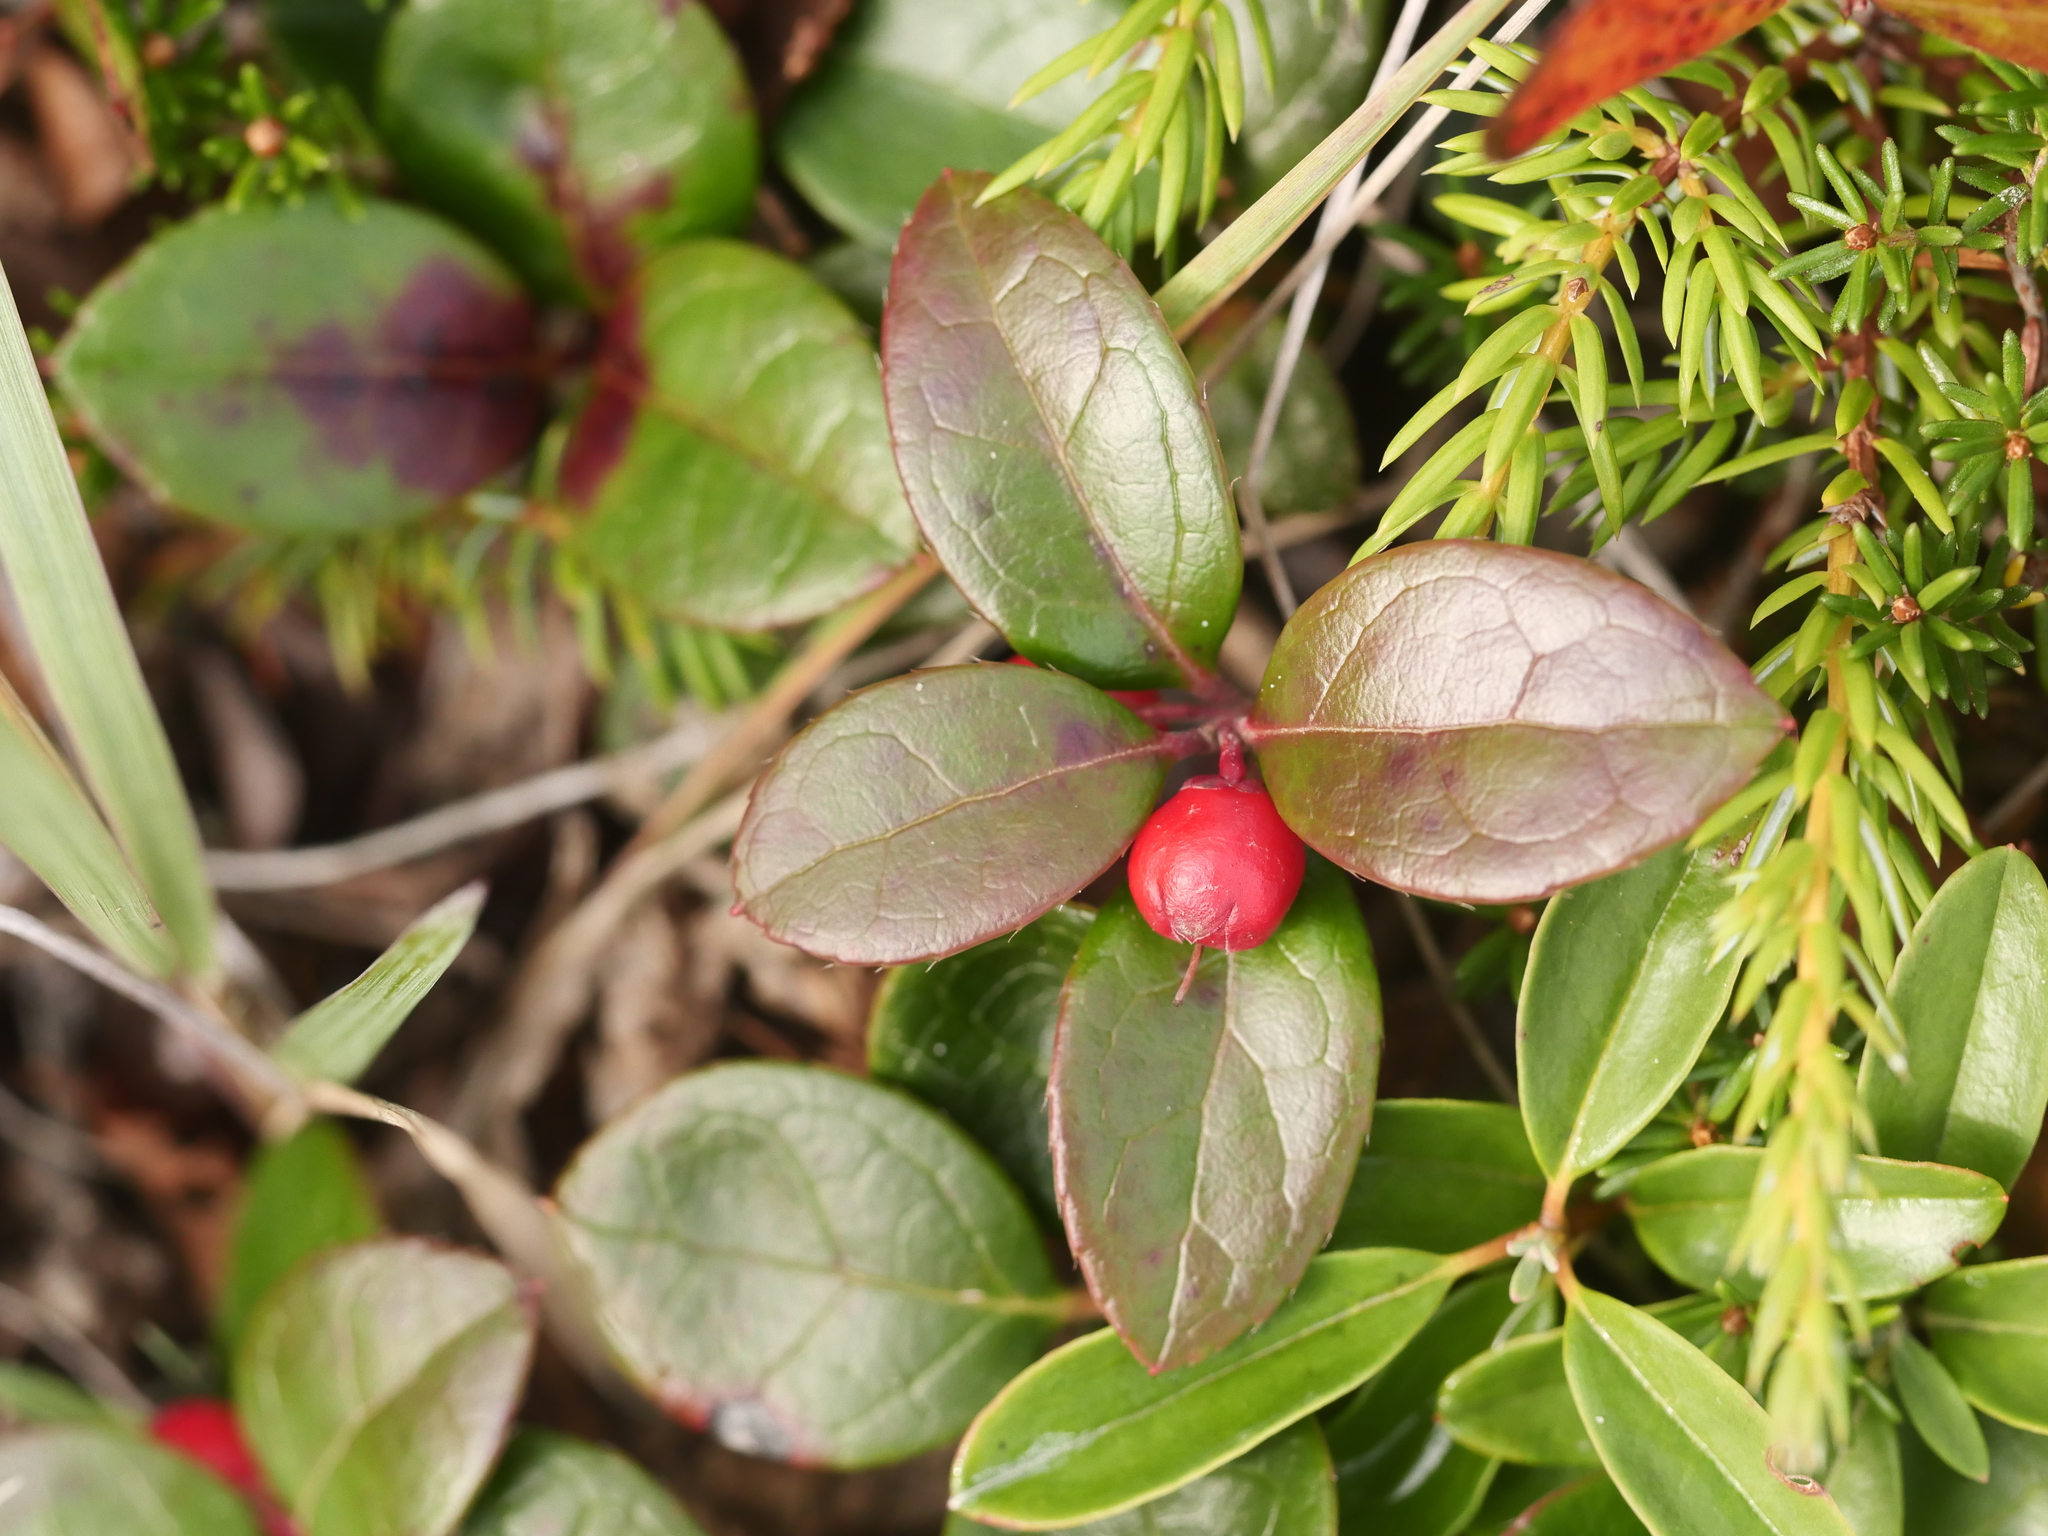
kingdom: Plantae
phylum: Tracheophyta
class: Magnoliopsida
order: Ericales
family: Ericaceae
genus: Gaultheria
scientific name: Gaultheria procumbens
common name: Checkerberry
